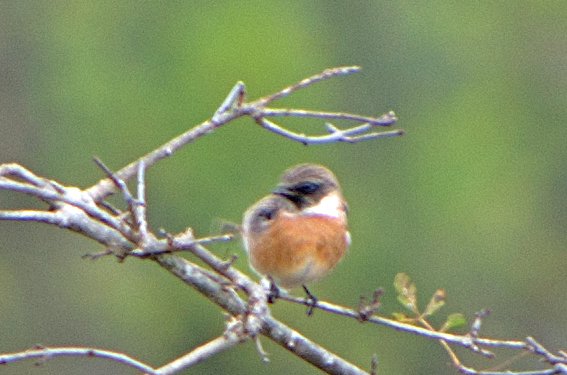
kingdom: Animalia
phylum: Chordata
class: Aves
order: Passeriformes
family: Muscicapidae
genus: Saxicola
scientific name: Saxicola rubicola
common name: European stonechat
